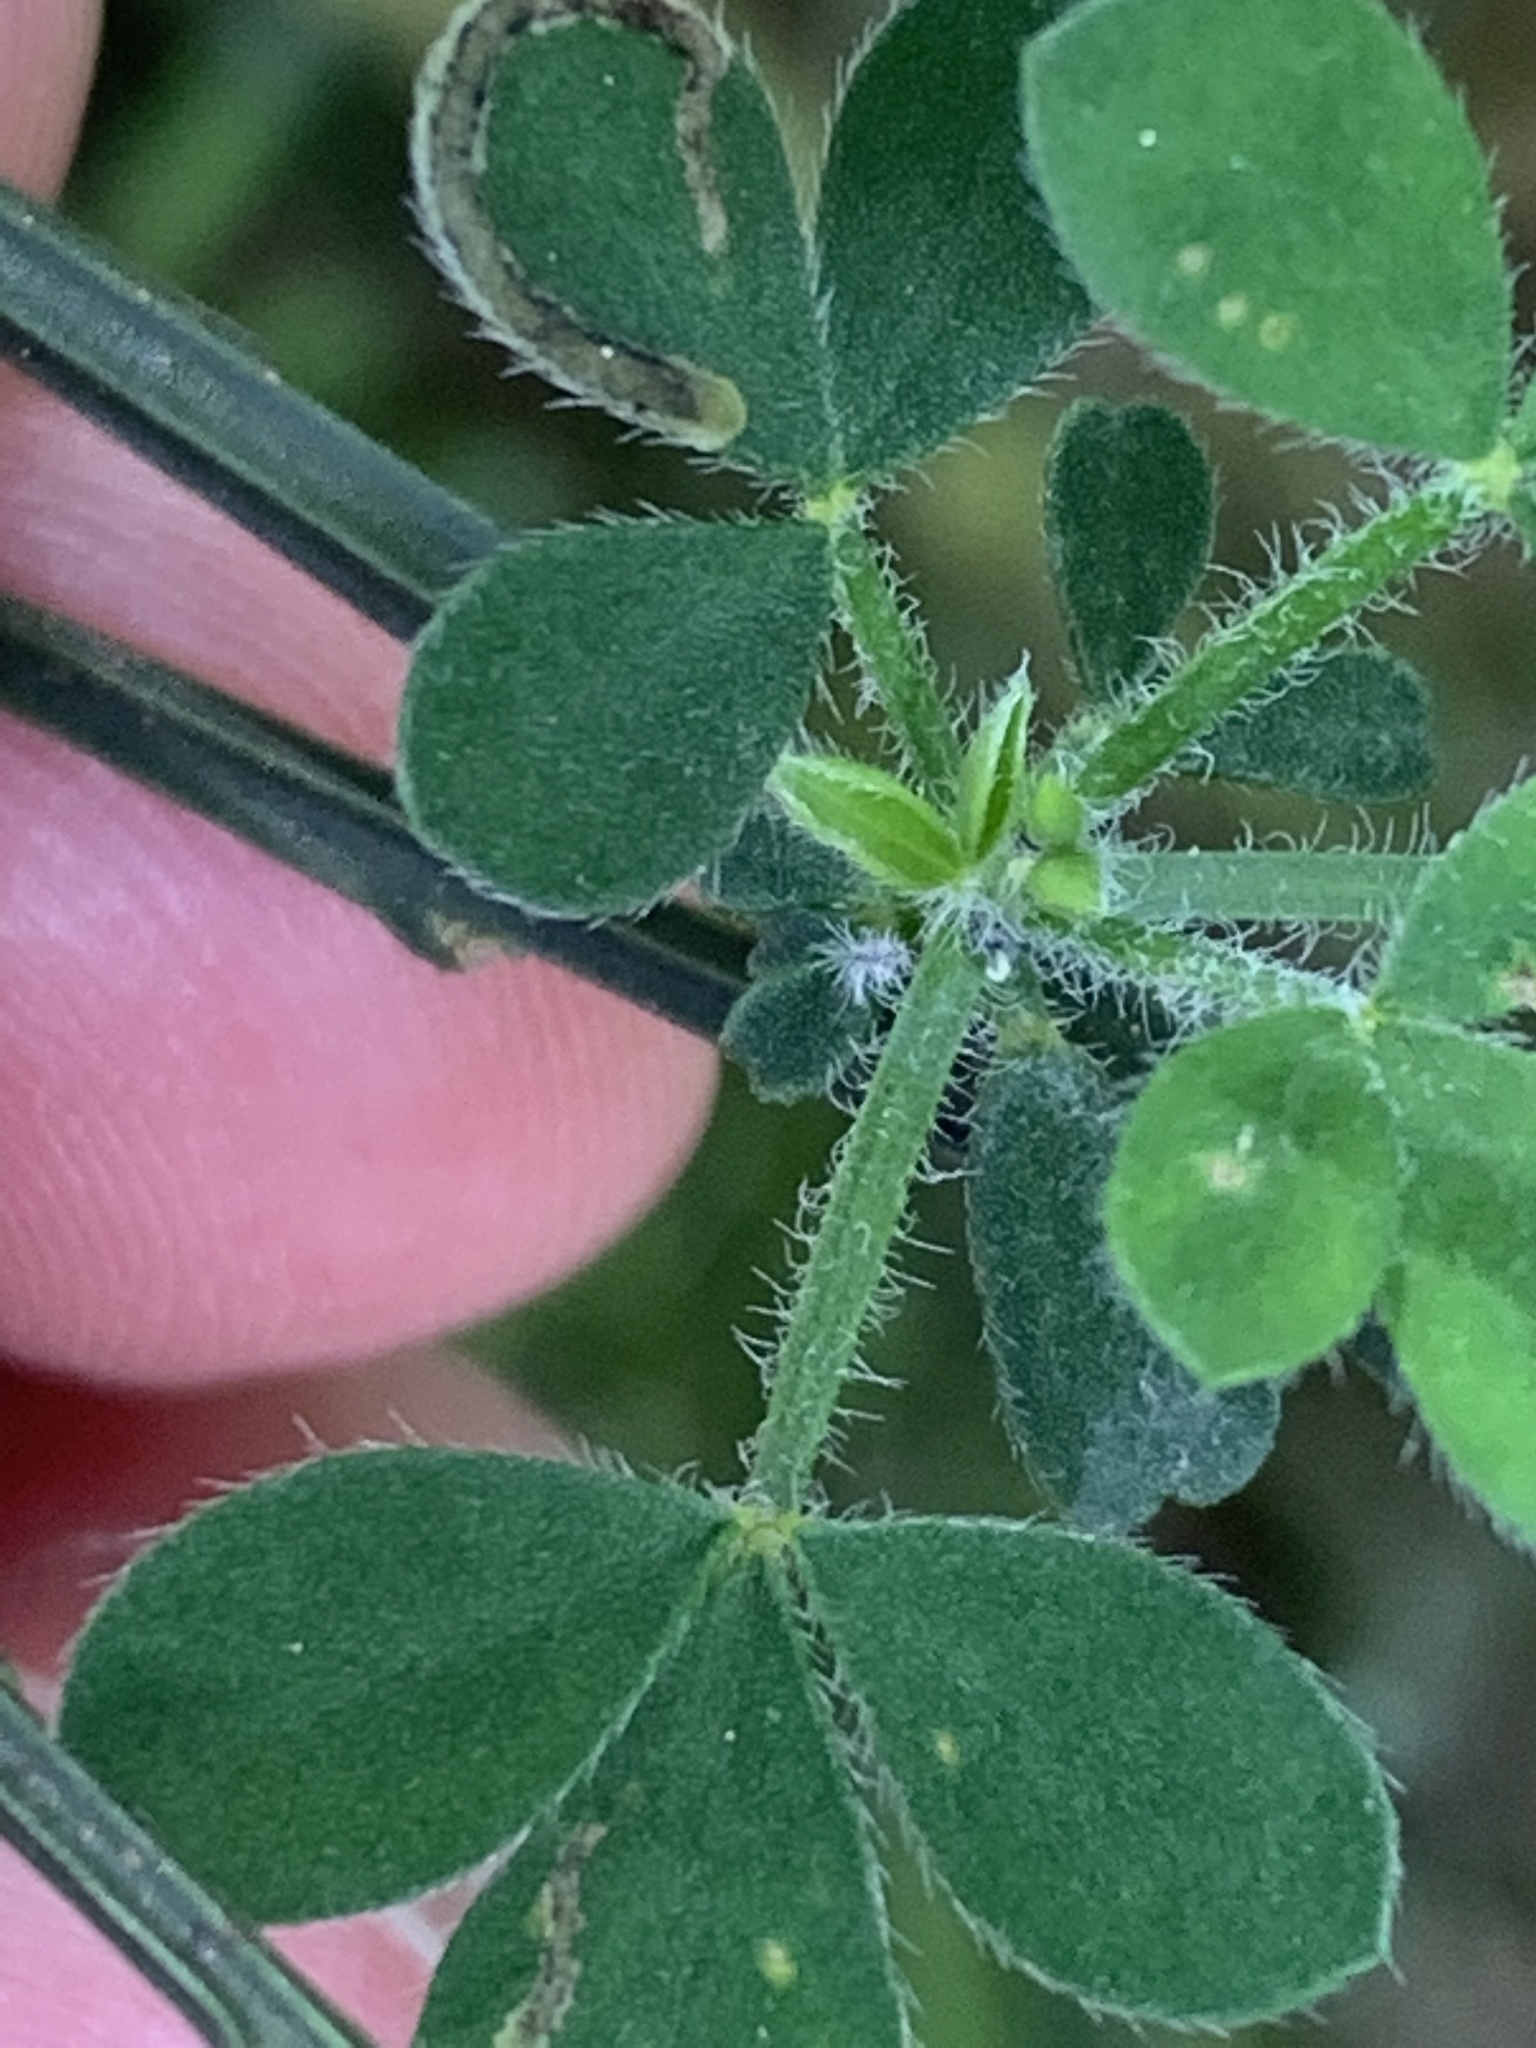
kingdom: Plantae
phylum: Tracheophyta
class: Magnoliopsida
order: Fabales
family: Fabaceae
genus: Cytisus
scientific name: Cytisus scoparius
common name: Scotch broom
